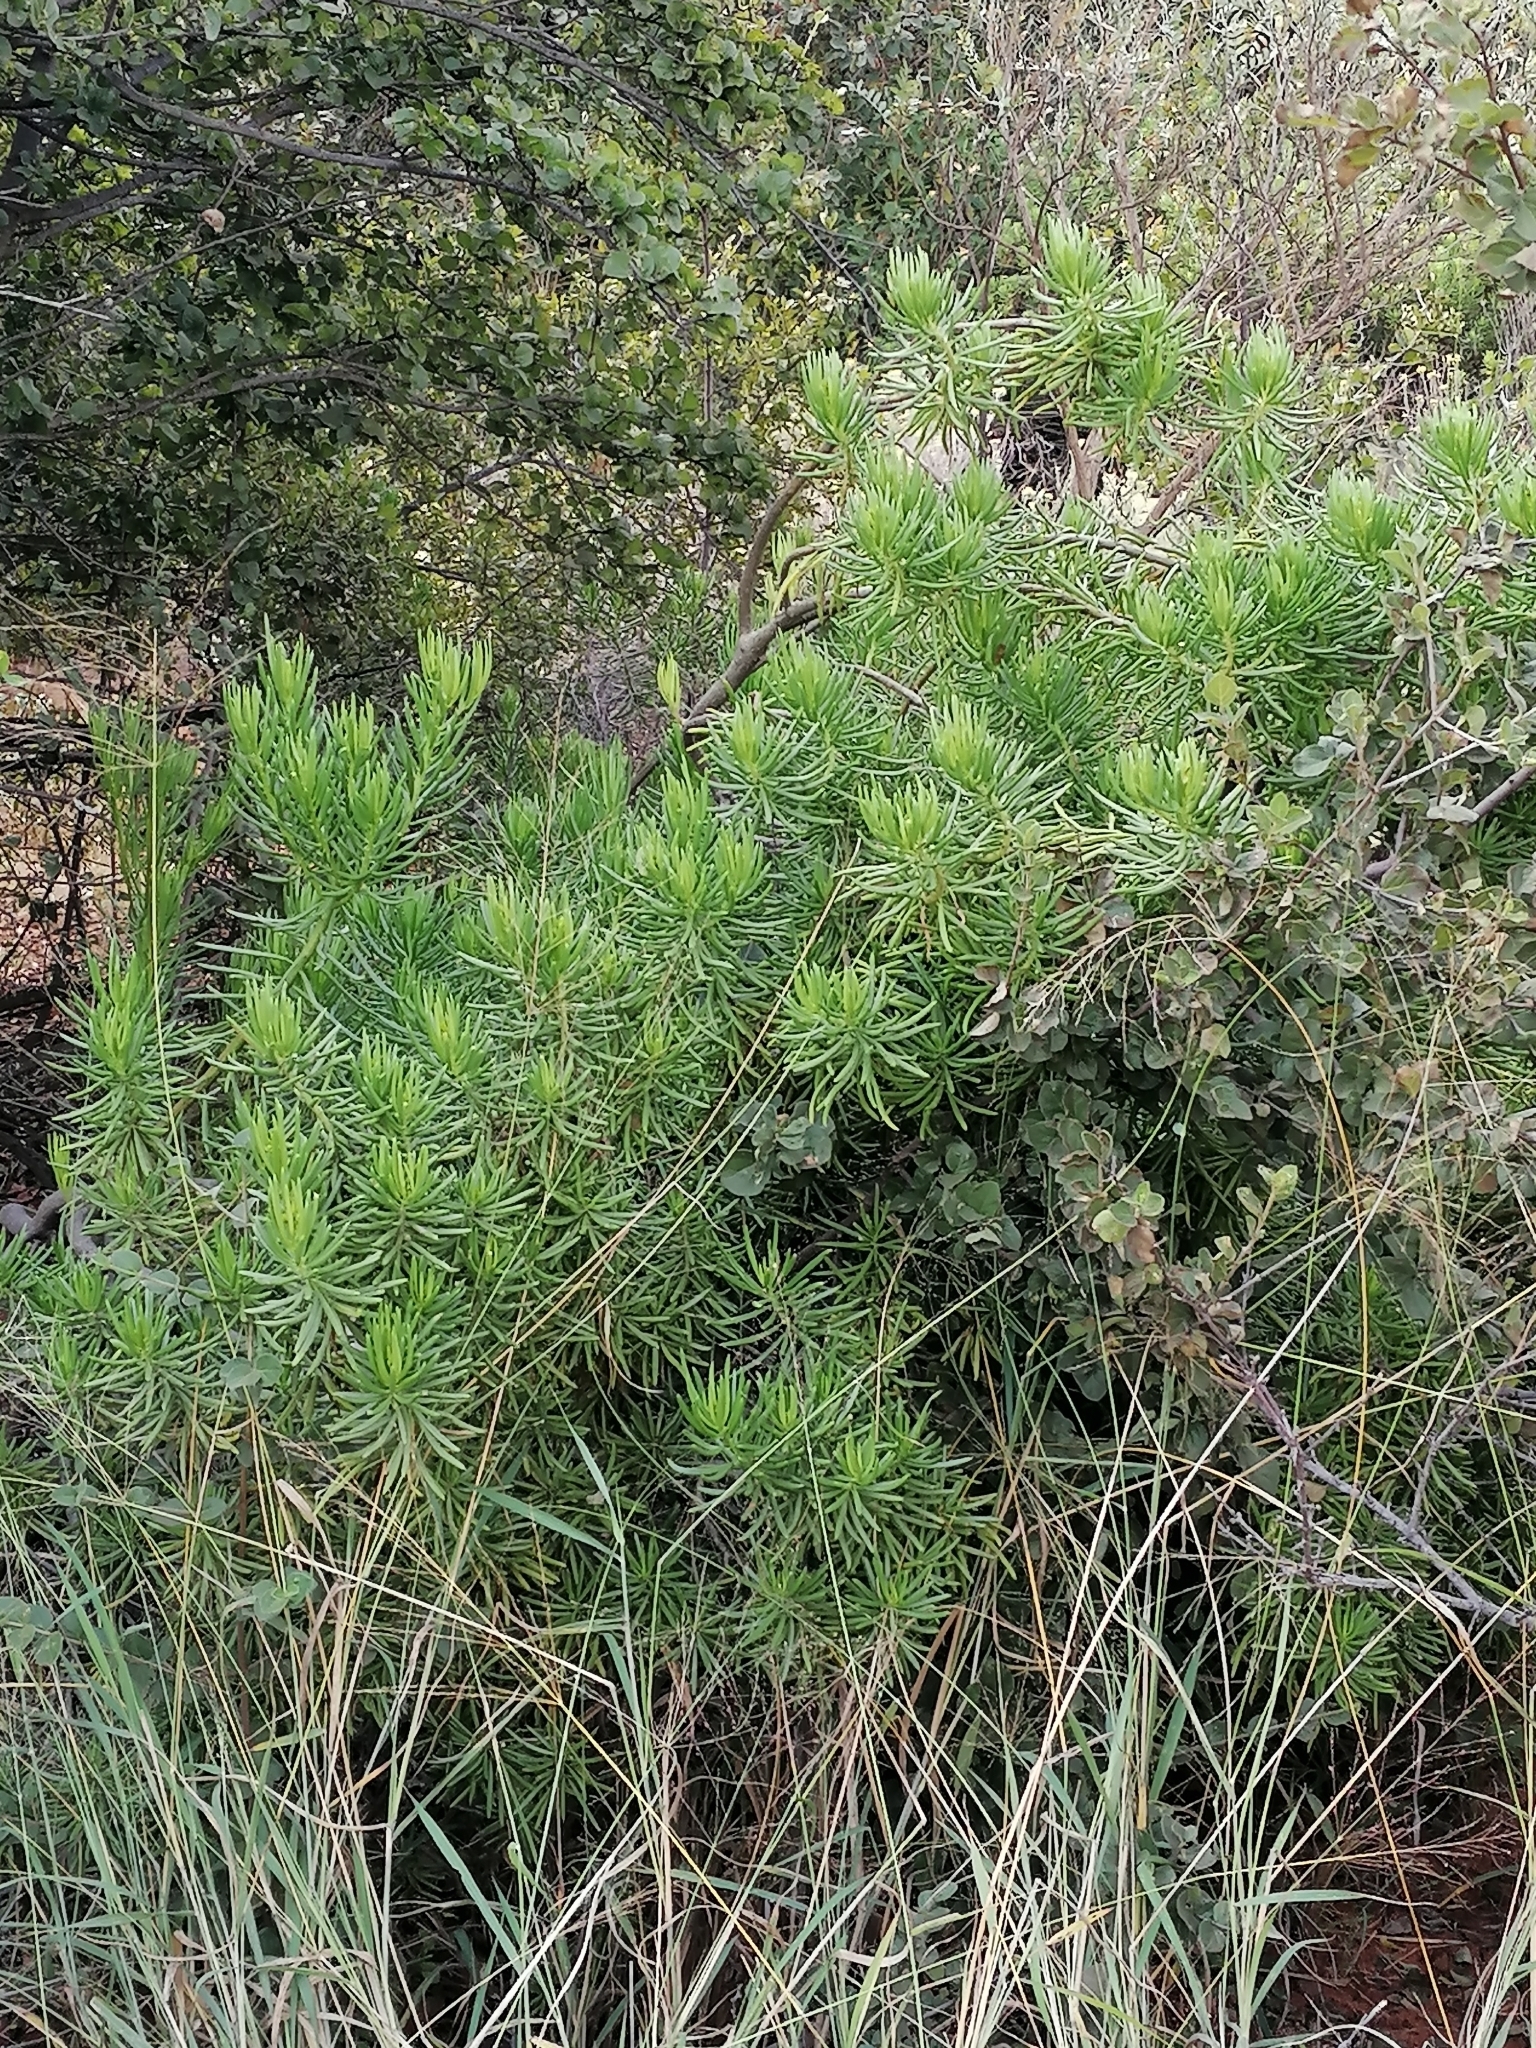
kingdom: Plantae
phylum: Tracheophyta
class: Magnoliopsida
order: Asterales
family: Asteraceae
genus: Kleinia
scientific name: Kleinia barbertonica
